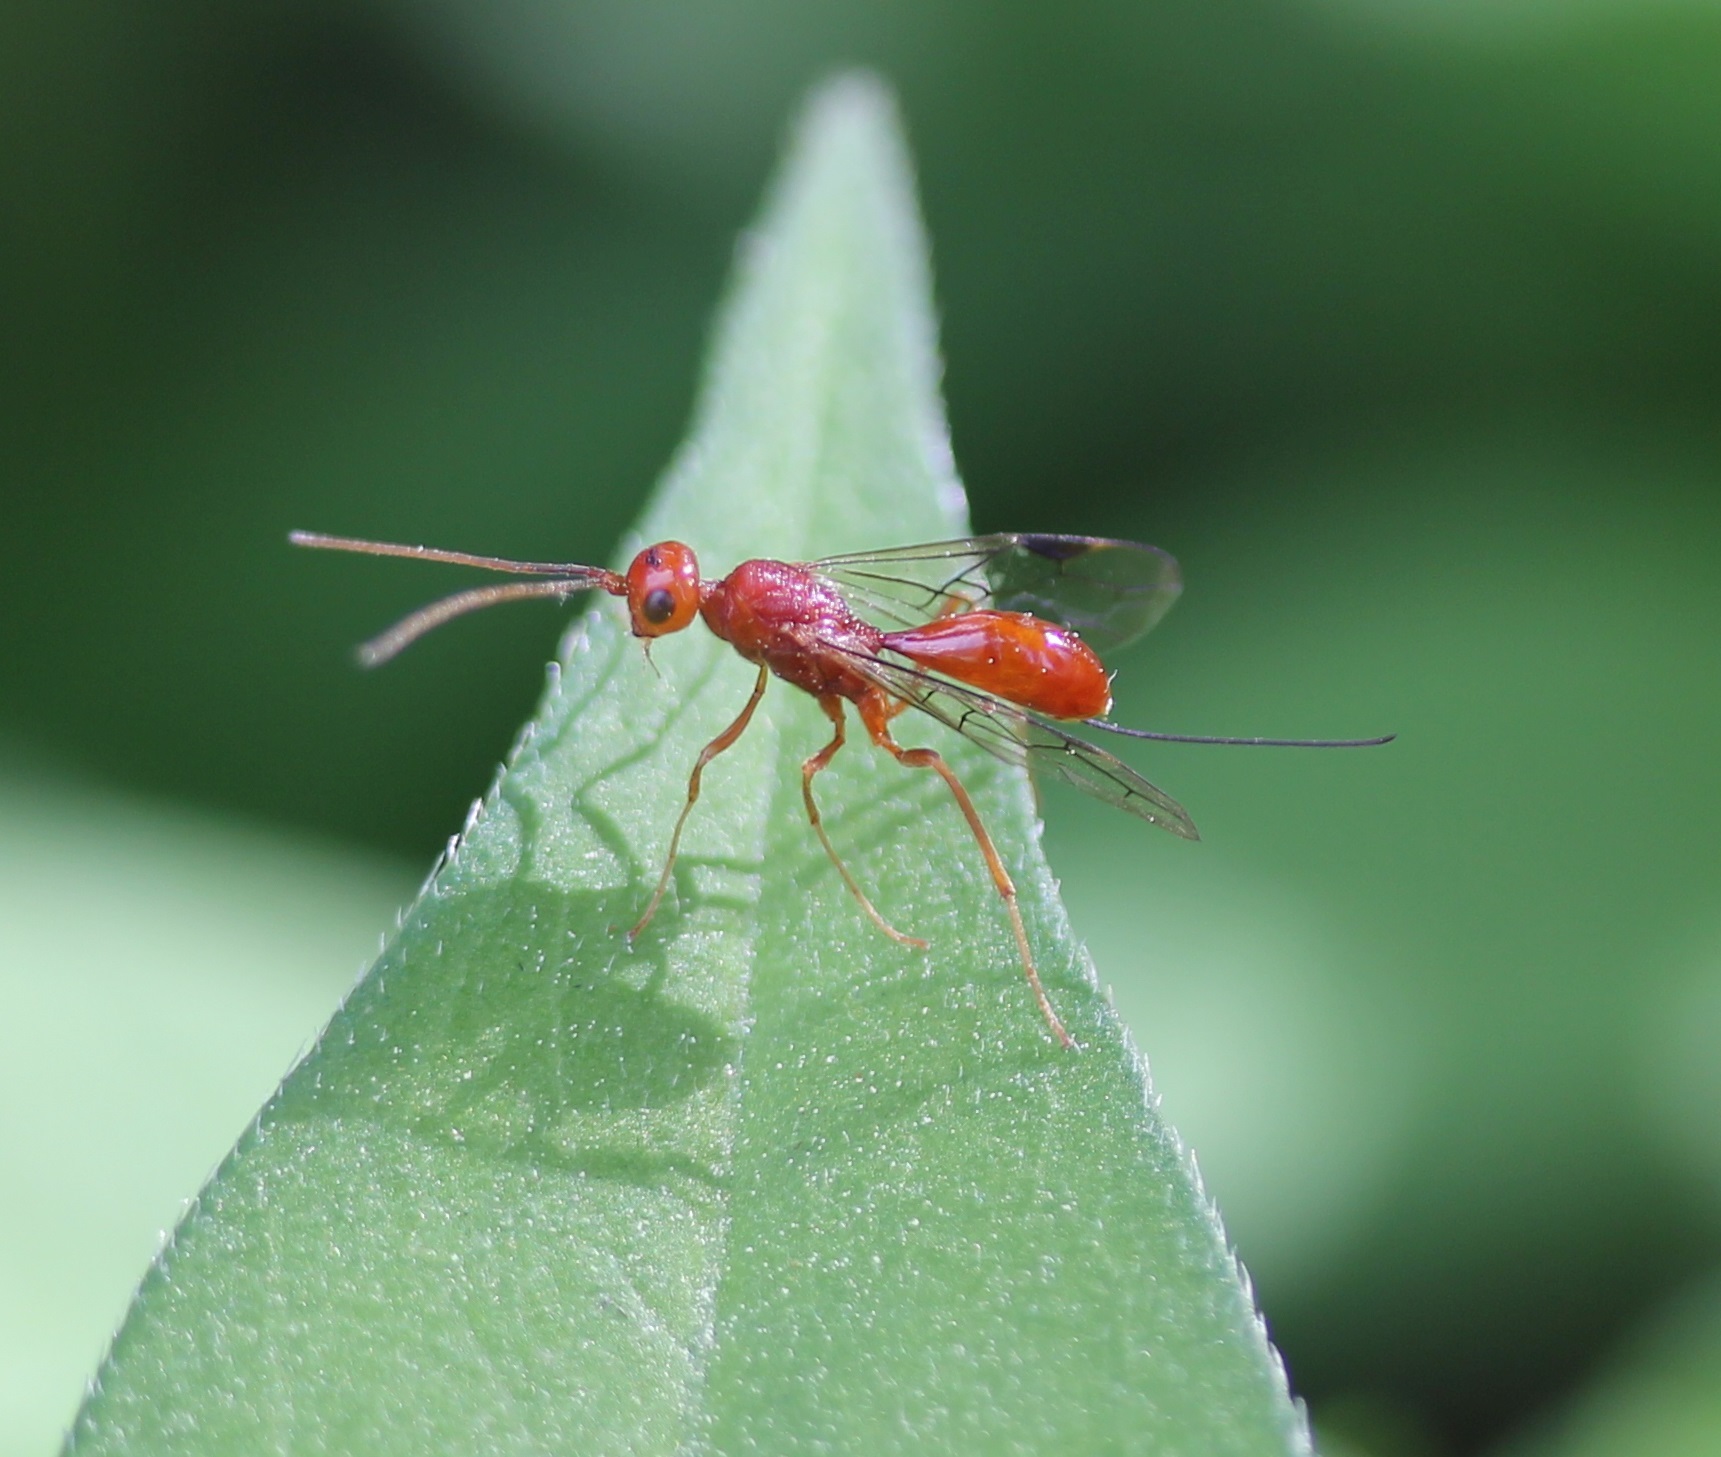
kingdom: Animalia
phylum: Arthropoda
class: Insecta
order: Hymenoptera
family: Aulacidae
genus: Aulacus
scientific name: Aulacus burquei
